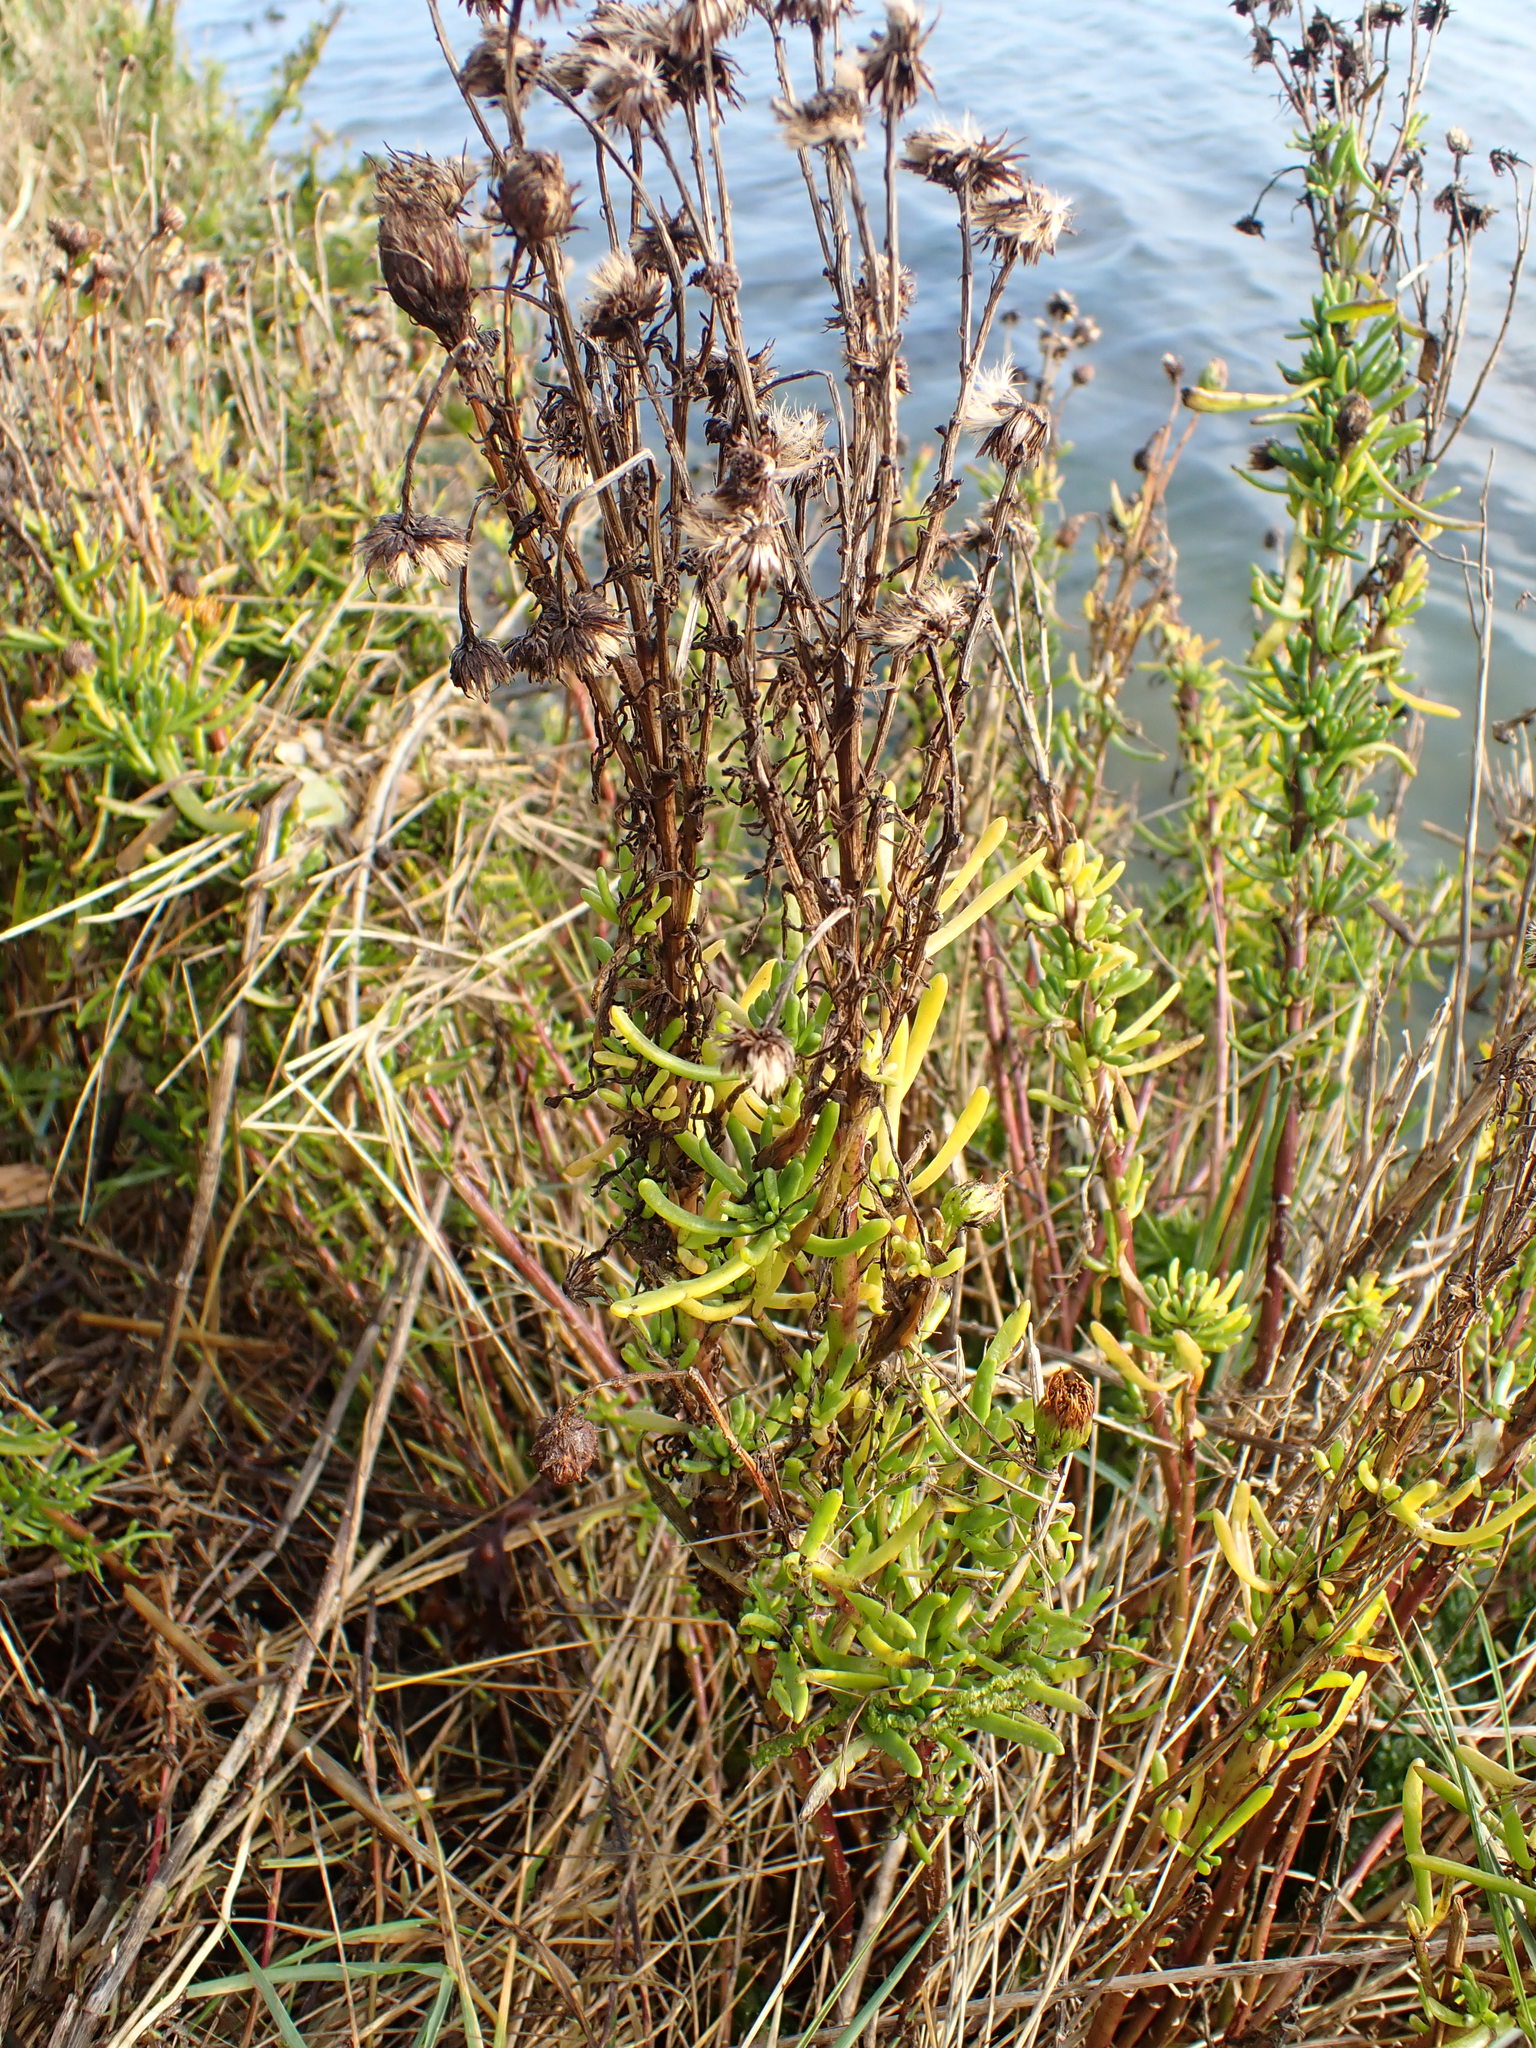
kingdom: Plantae
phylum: Tracheophyta
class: Magnoliopsida
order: Asterales
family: Asteraceae
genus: Limbarda
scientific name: Limbarda crithmoides
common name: Golden samphire
